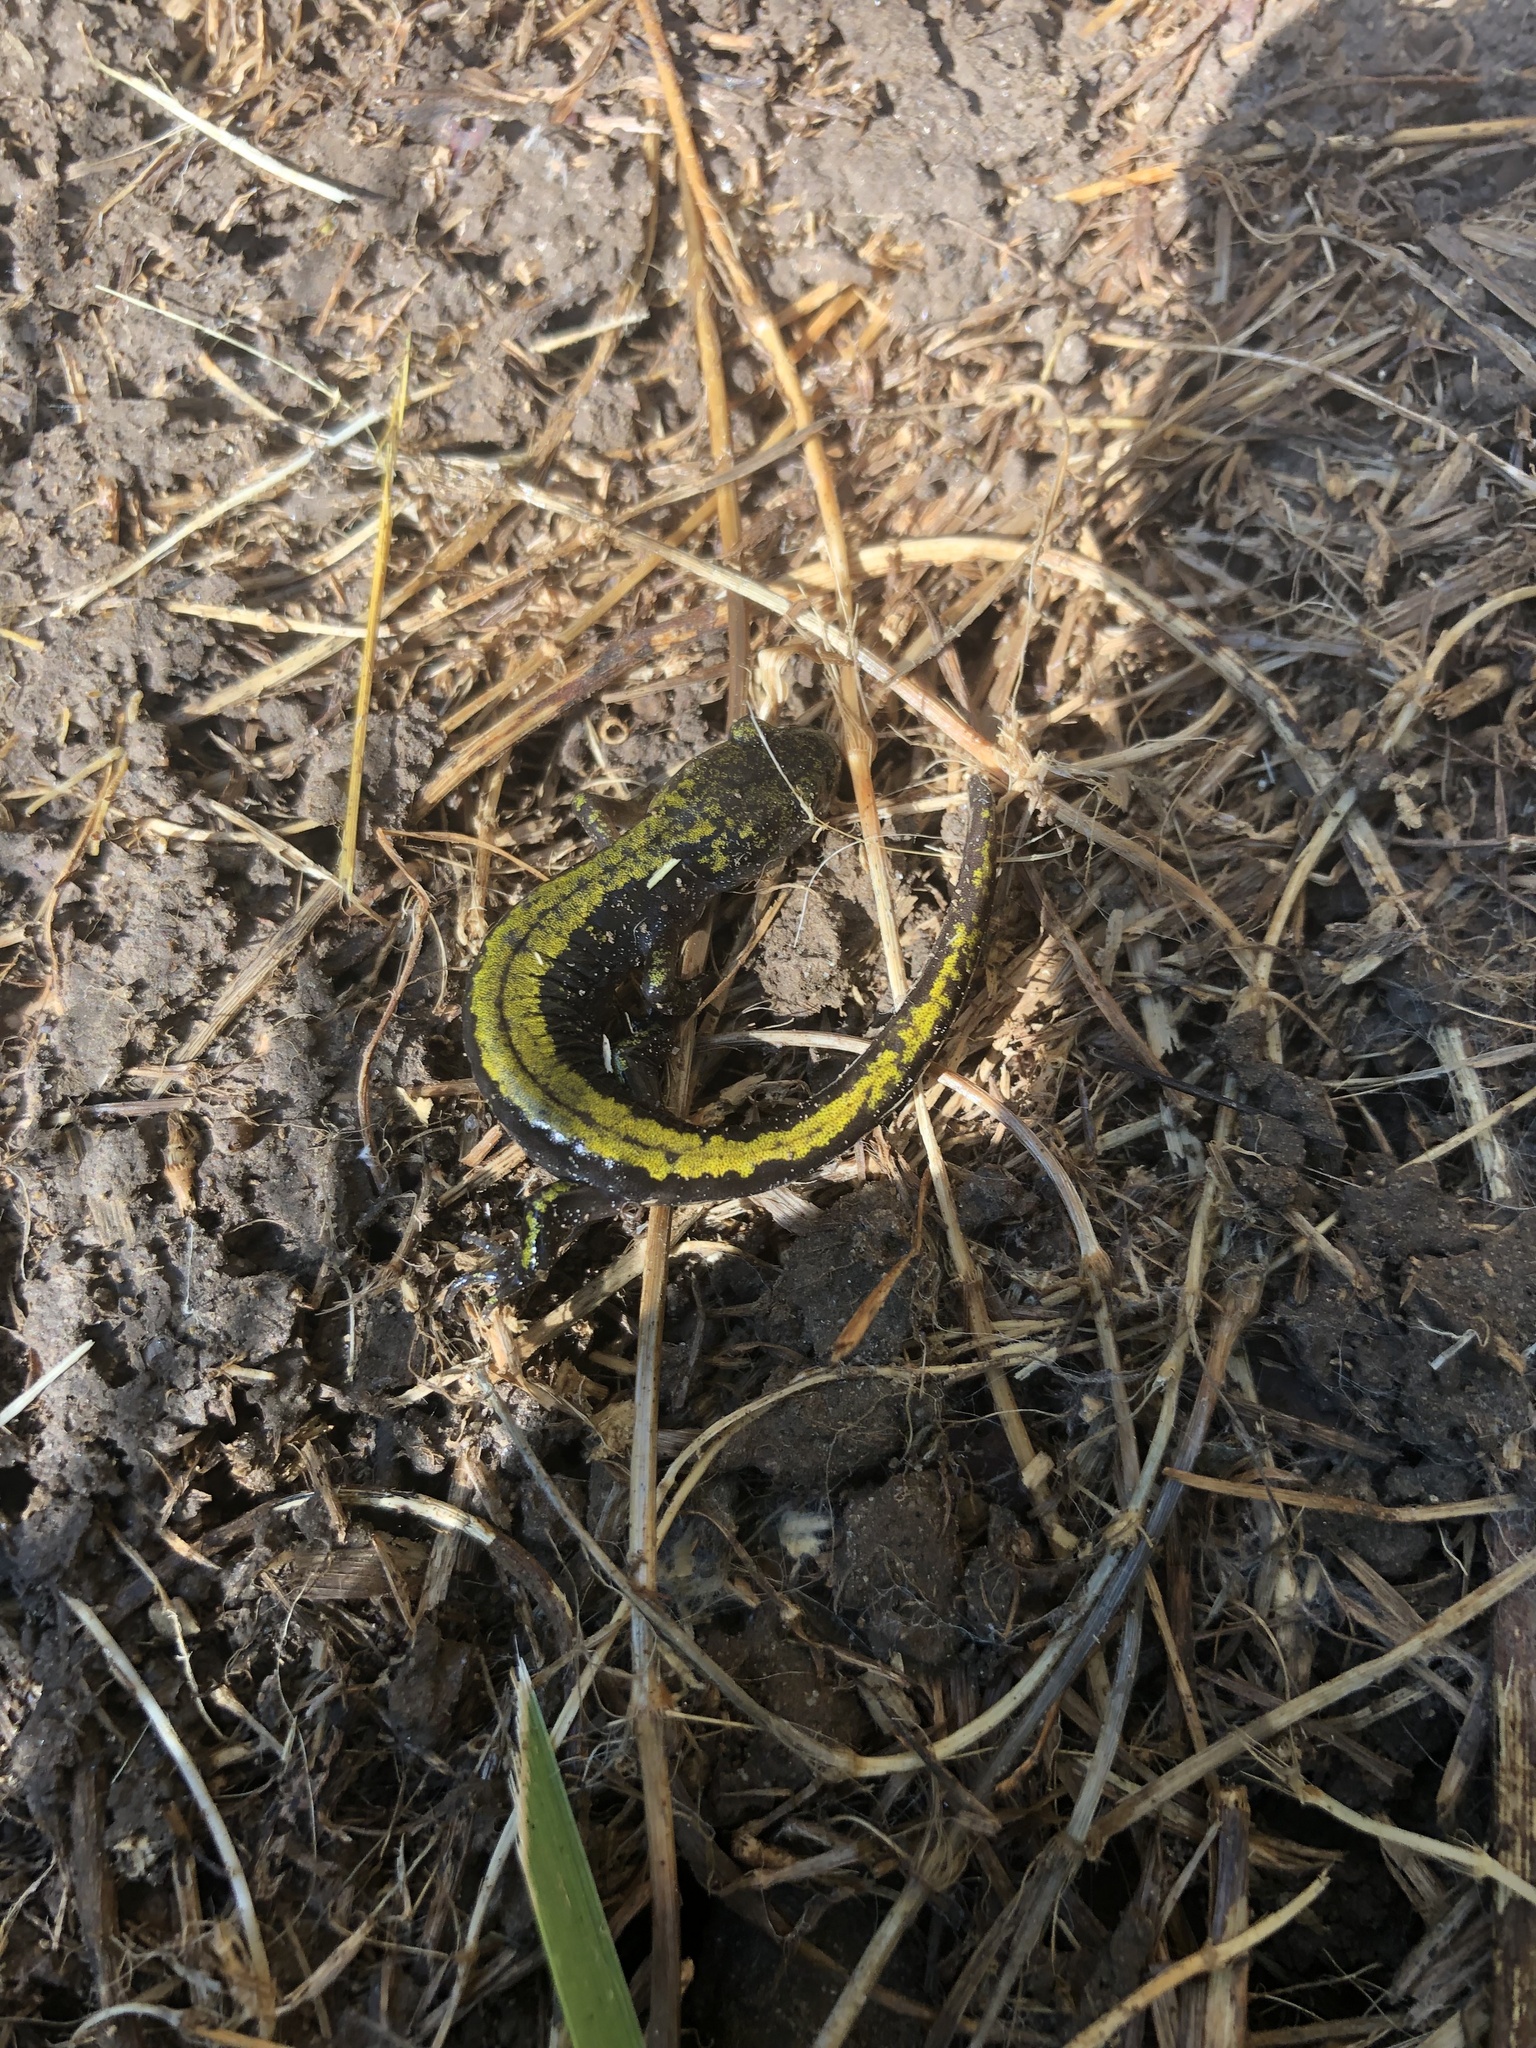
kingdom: Animalia
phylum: Chordata
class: Amphibia
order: Caudata
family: Ambystomatidae
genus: Ambystoma
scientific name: Ambystoma macrodactylum
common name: Long-toed salamander
